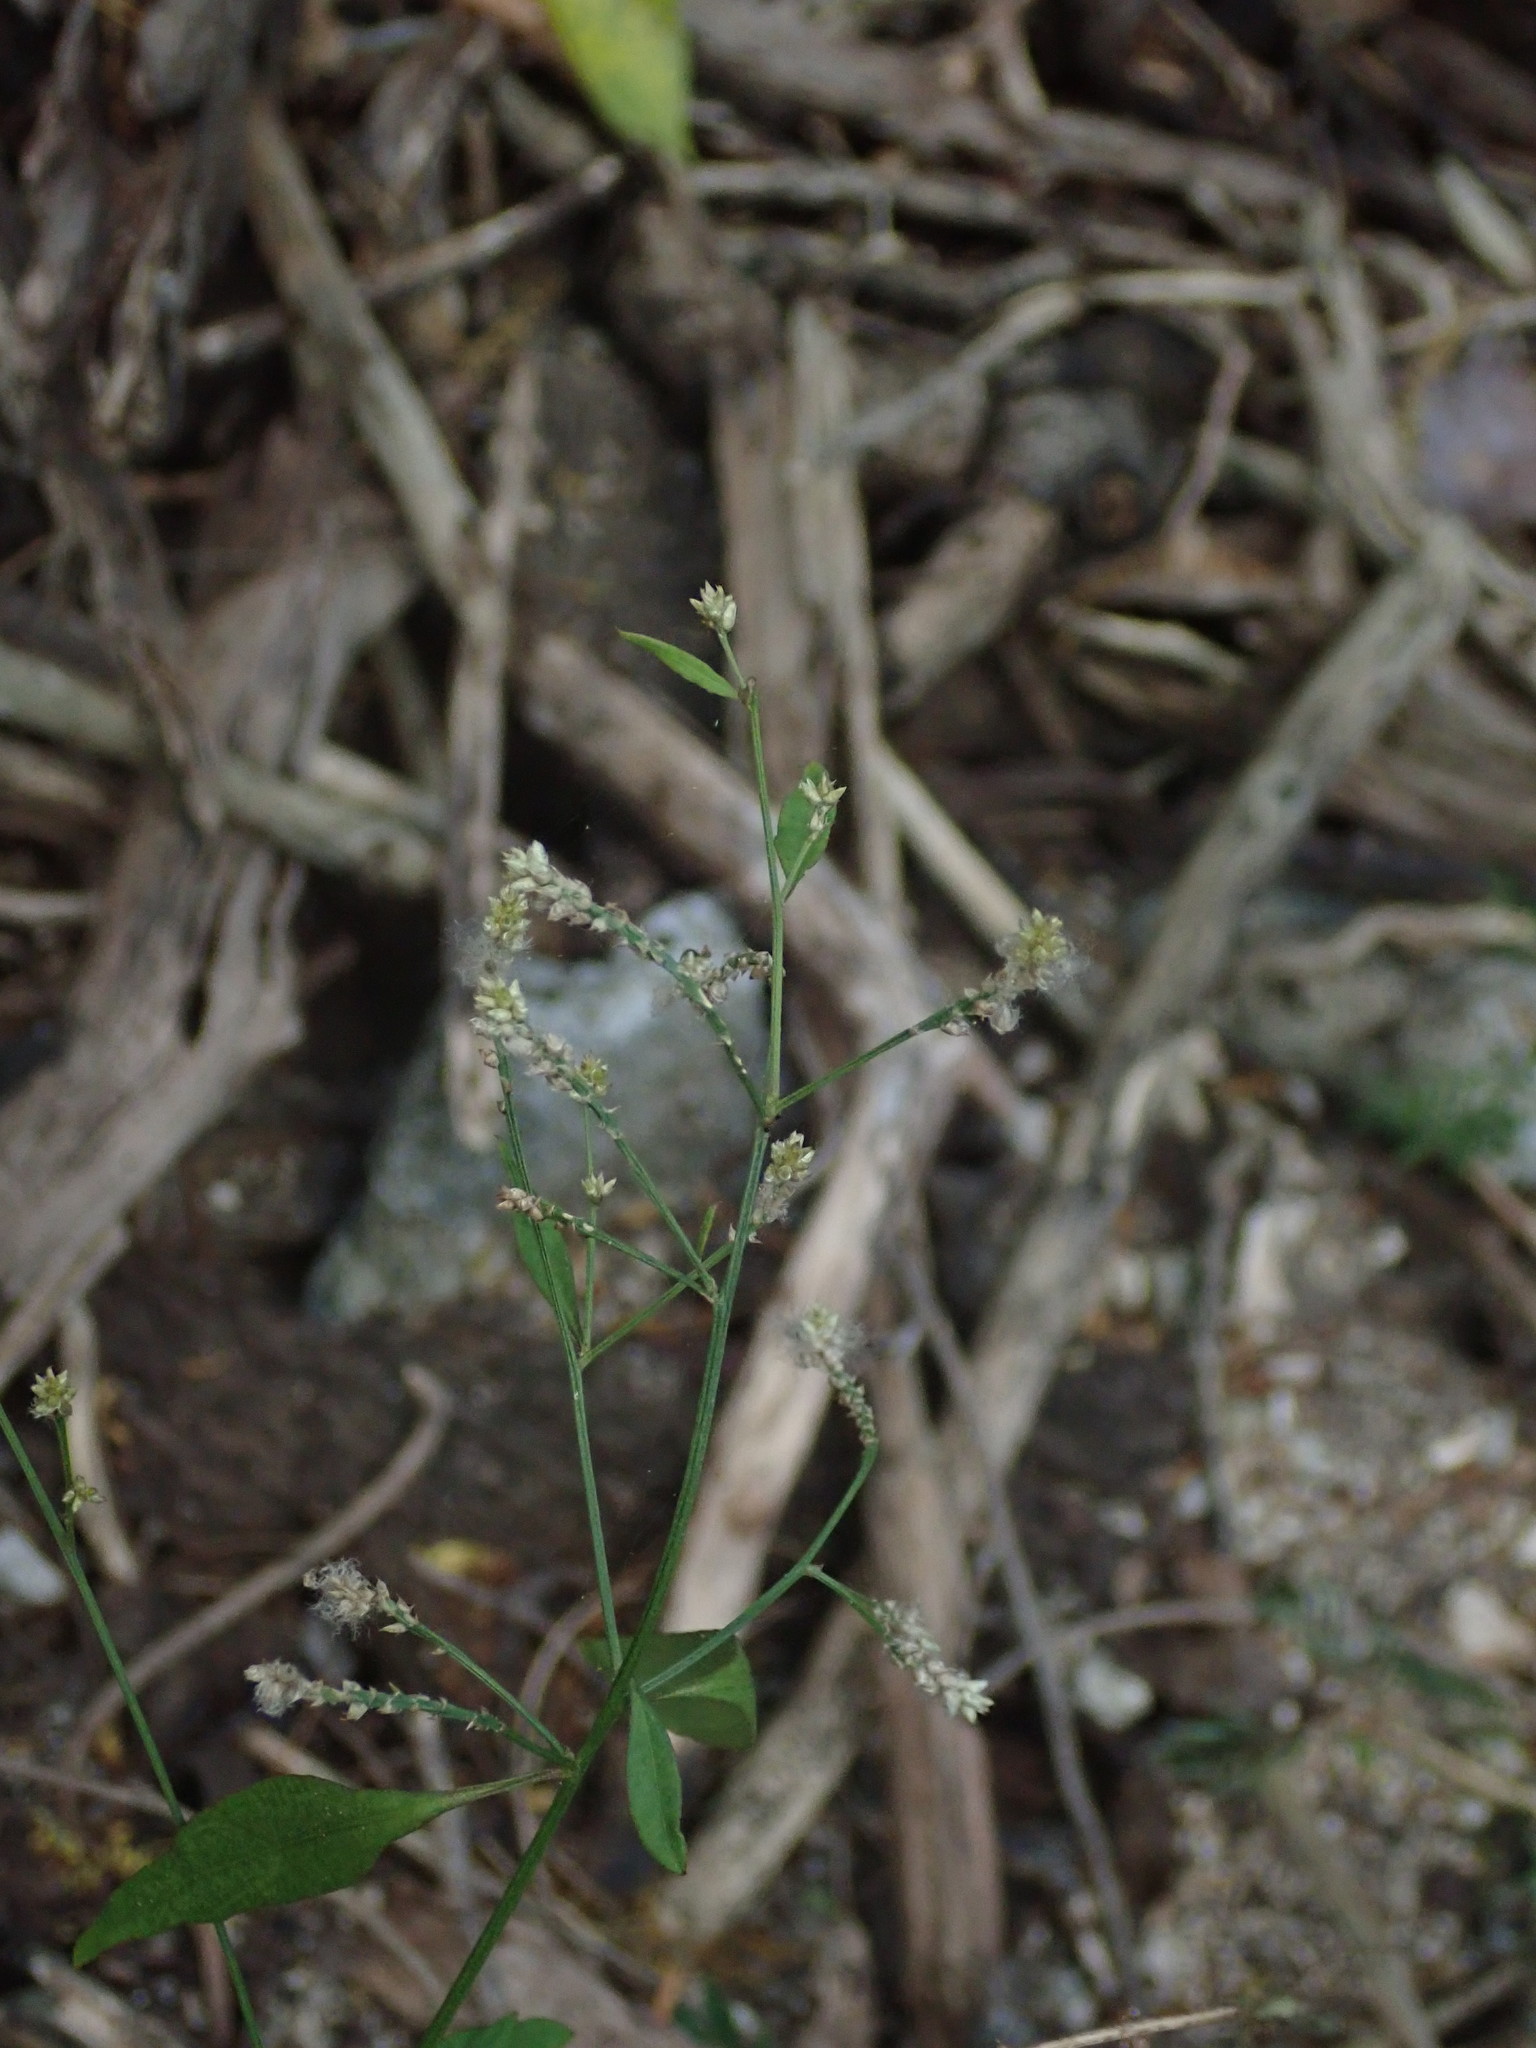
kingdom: Plantae
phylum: Tracheophyta
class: Magnoliopsida
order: Caryophyllales
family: Amaranthaceae
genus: Iresine
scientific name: Iresine angustifolia
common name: White snowplant
